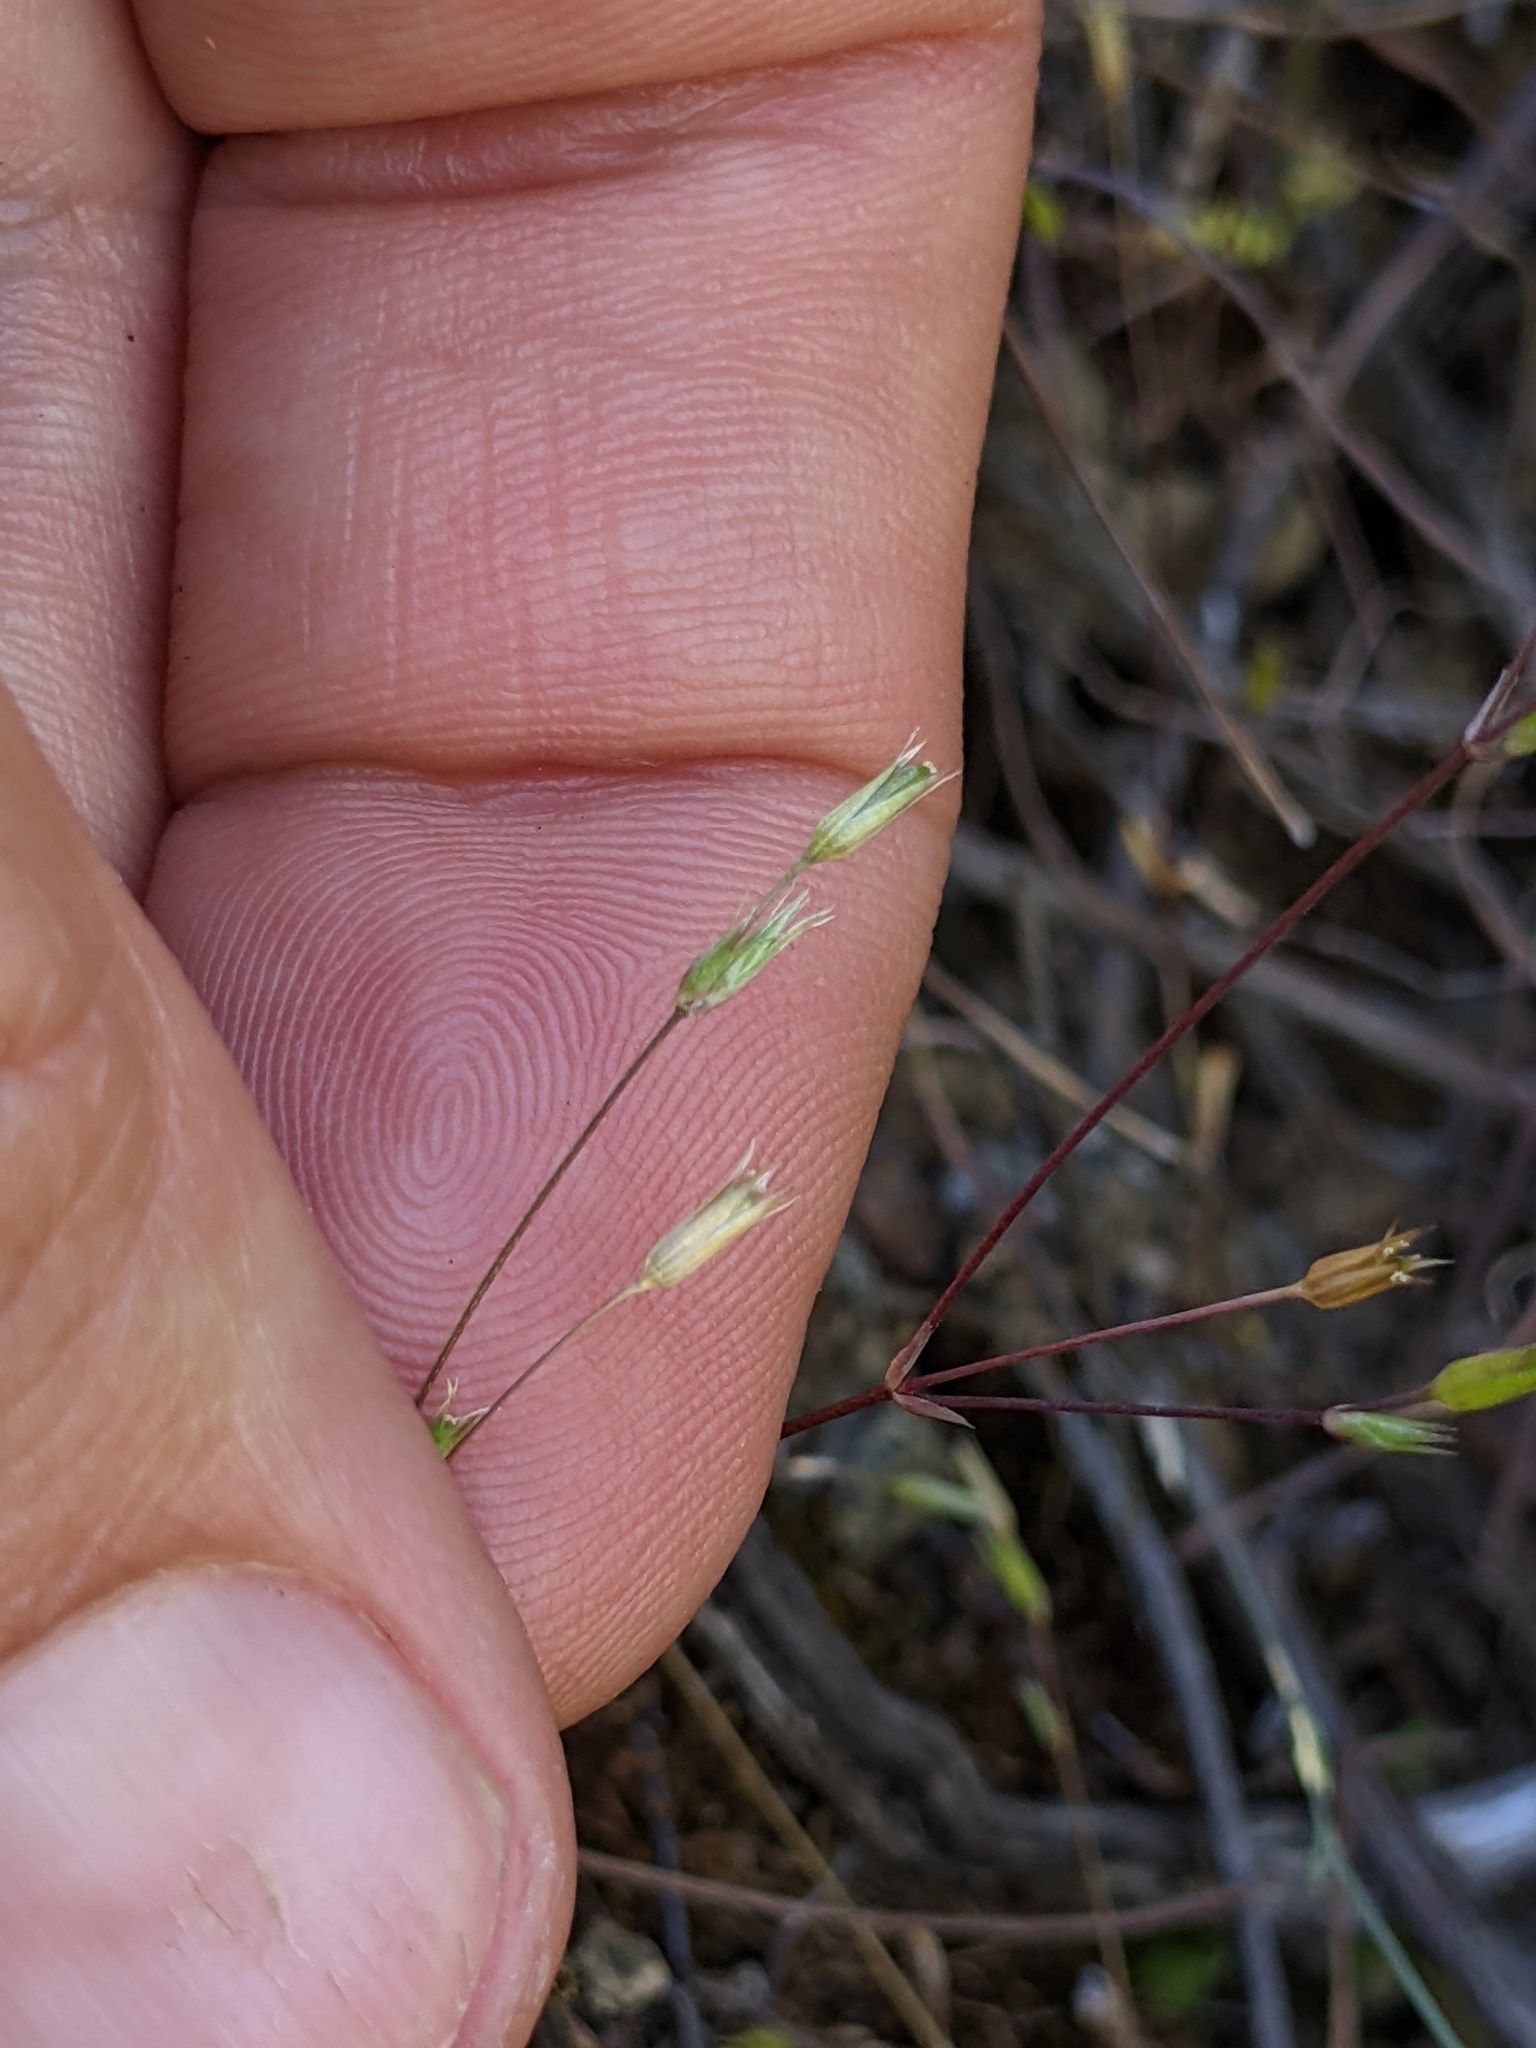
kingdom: Plantae
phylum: Tracheophyta
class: Magnoliopsida
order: Caryophyllales
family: Caryophyllaceae
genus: Stellaria
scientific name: Stellaria nitens
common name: Shining starwort
